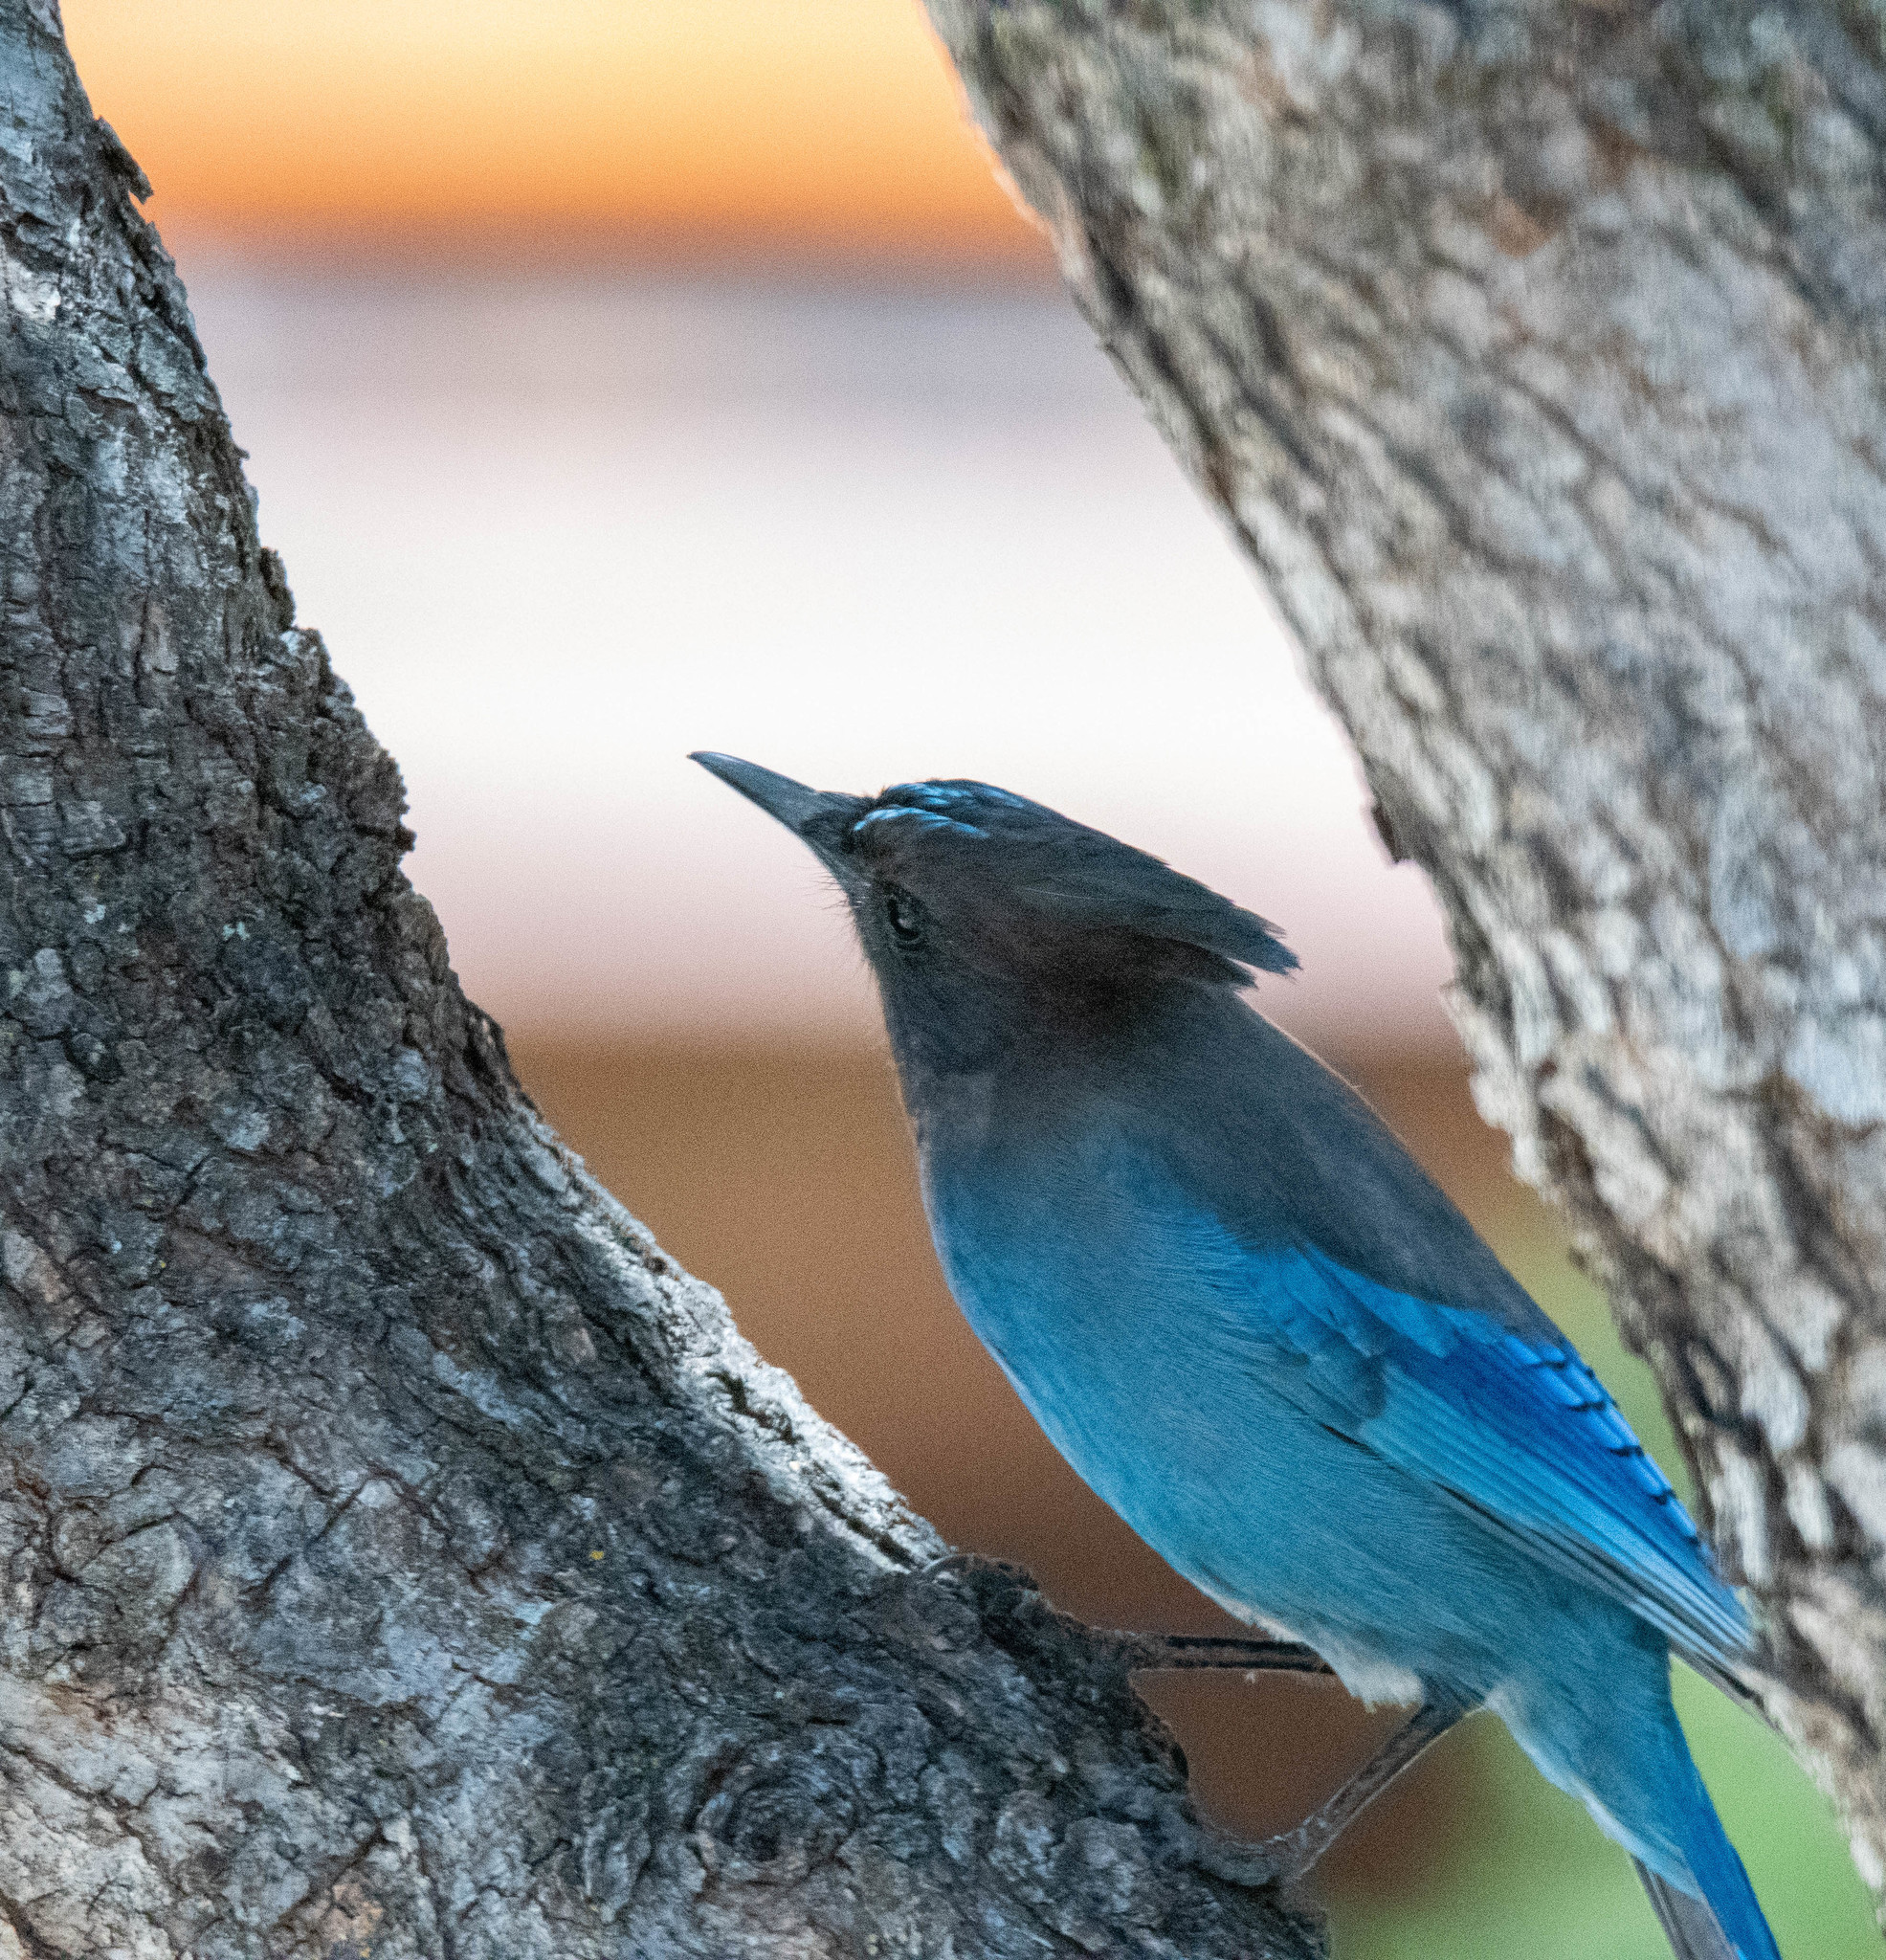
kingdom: Animalia
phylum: Chordata
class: Aves
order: Passeriformes
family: Corvidae
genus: Cyanocitta
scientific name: Cyanocitta stelleri
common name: Steller's jay
